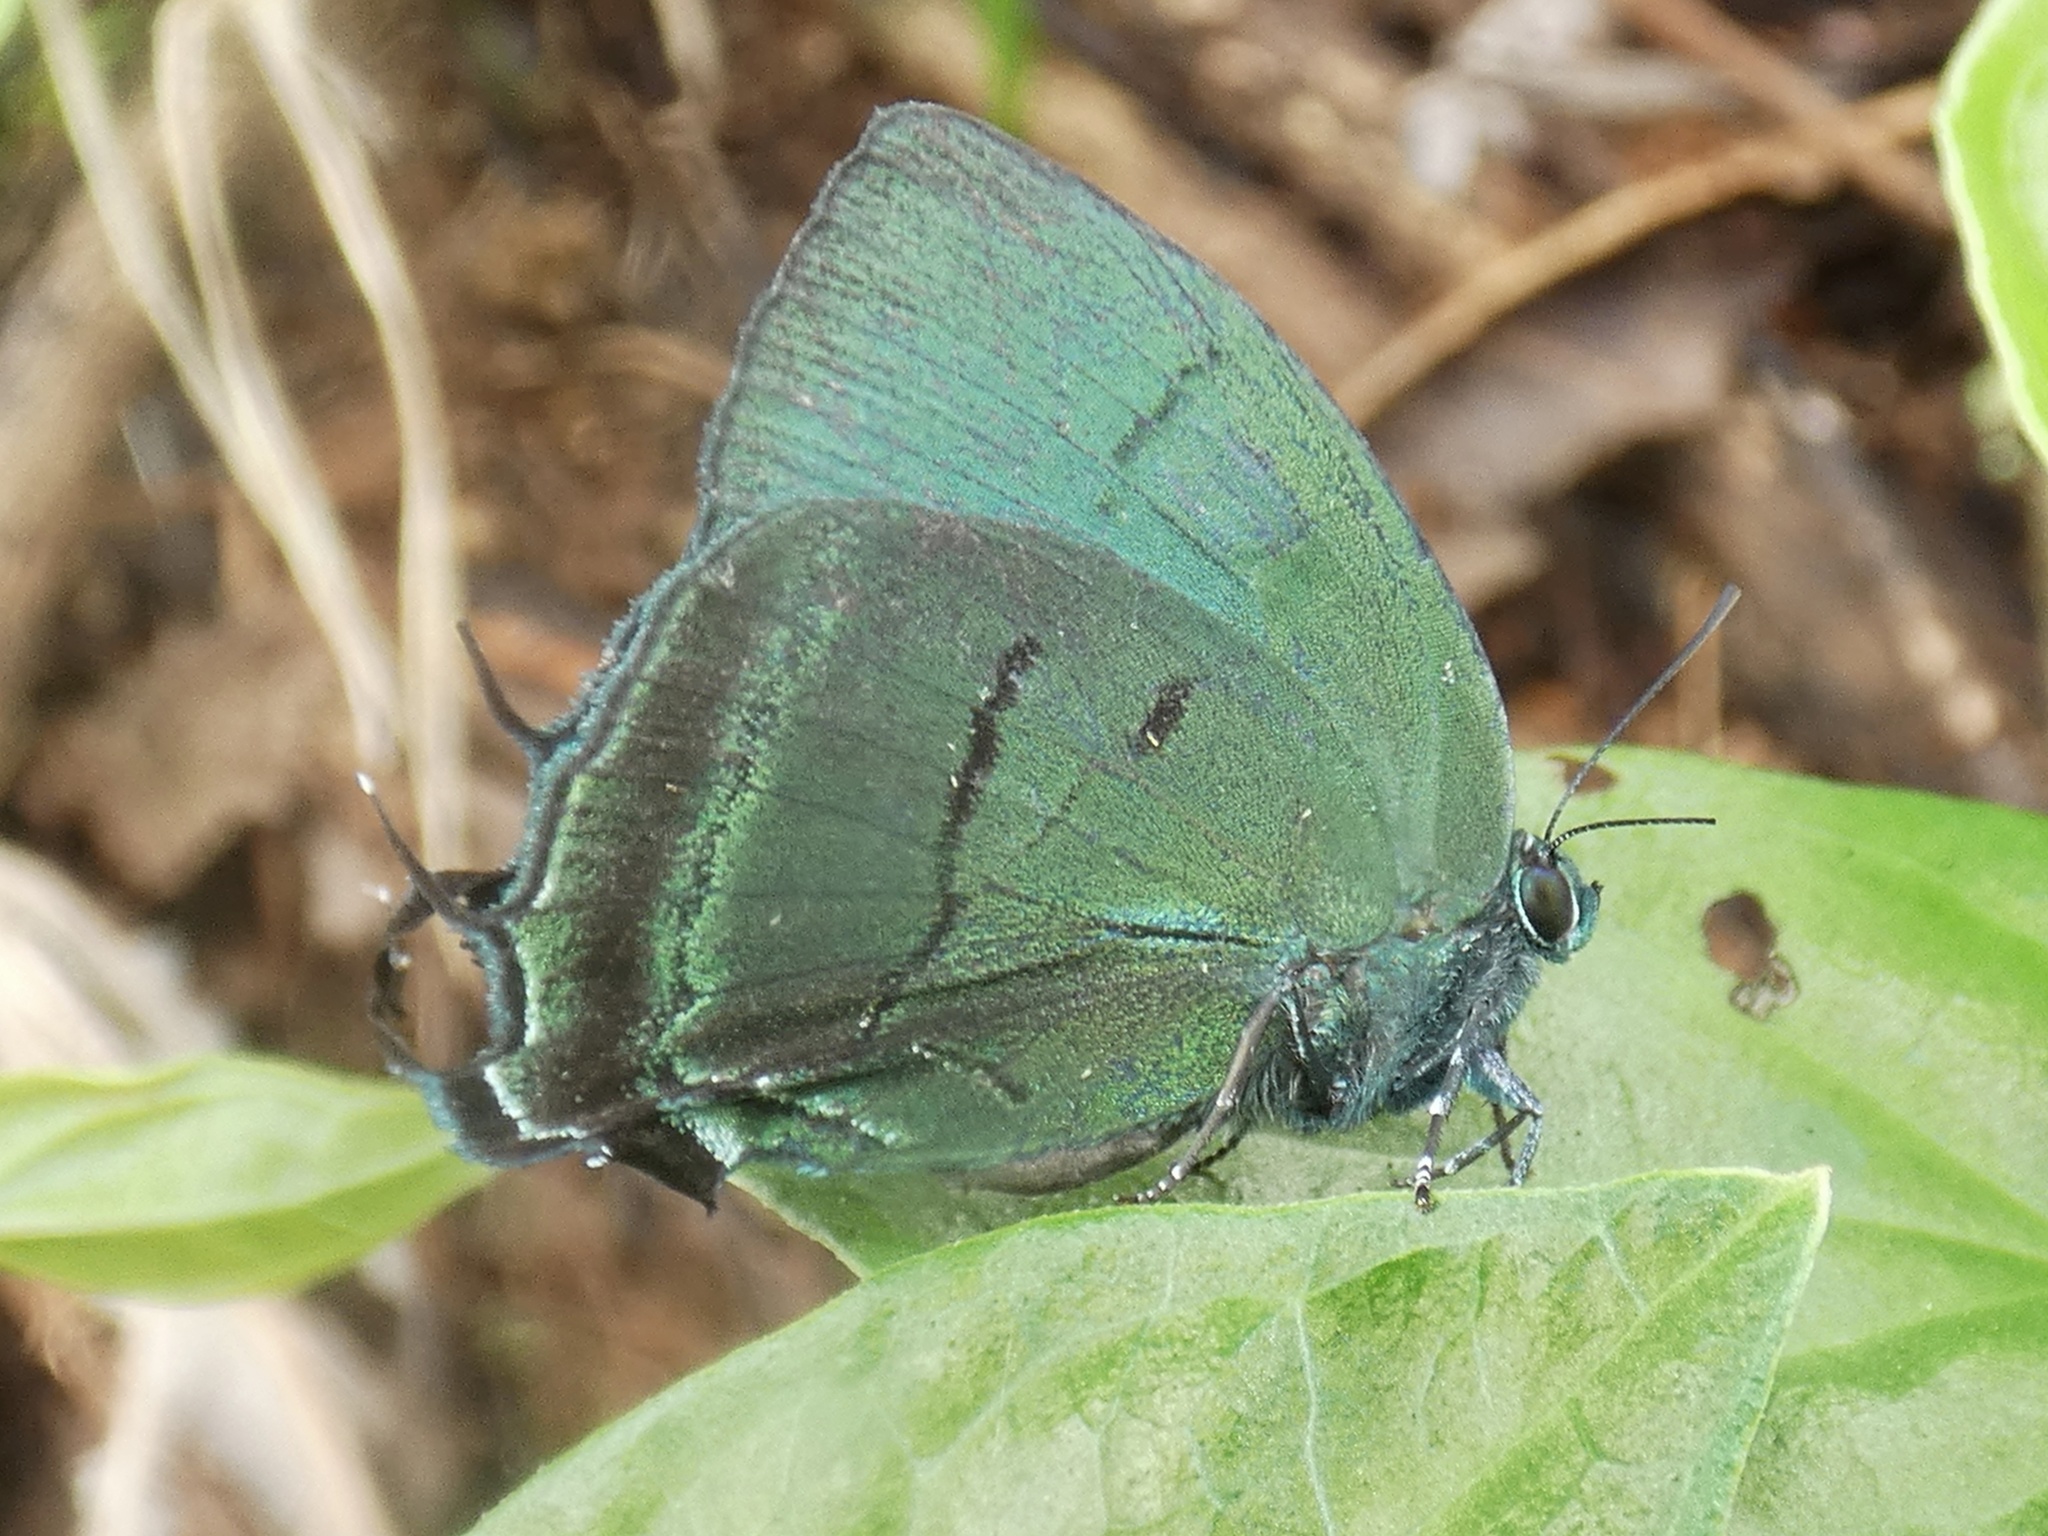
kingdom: Animalia
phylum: Arthropoda
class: Insecta
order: Lepidoptera
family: Lycaenidae
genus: Theritas
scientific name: Theritas mavors
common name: Deep-green hairstreak
